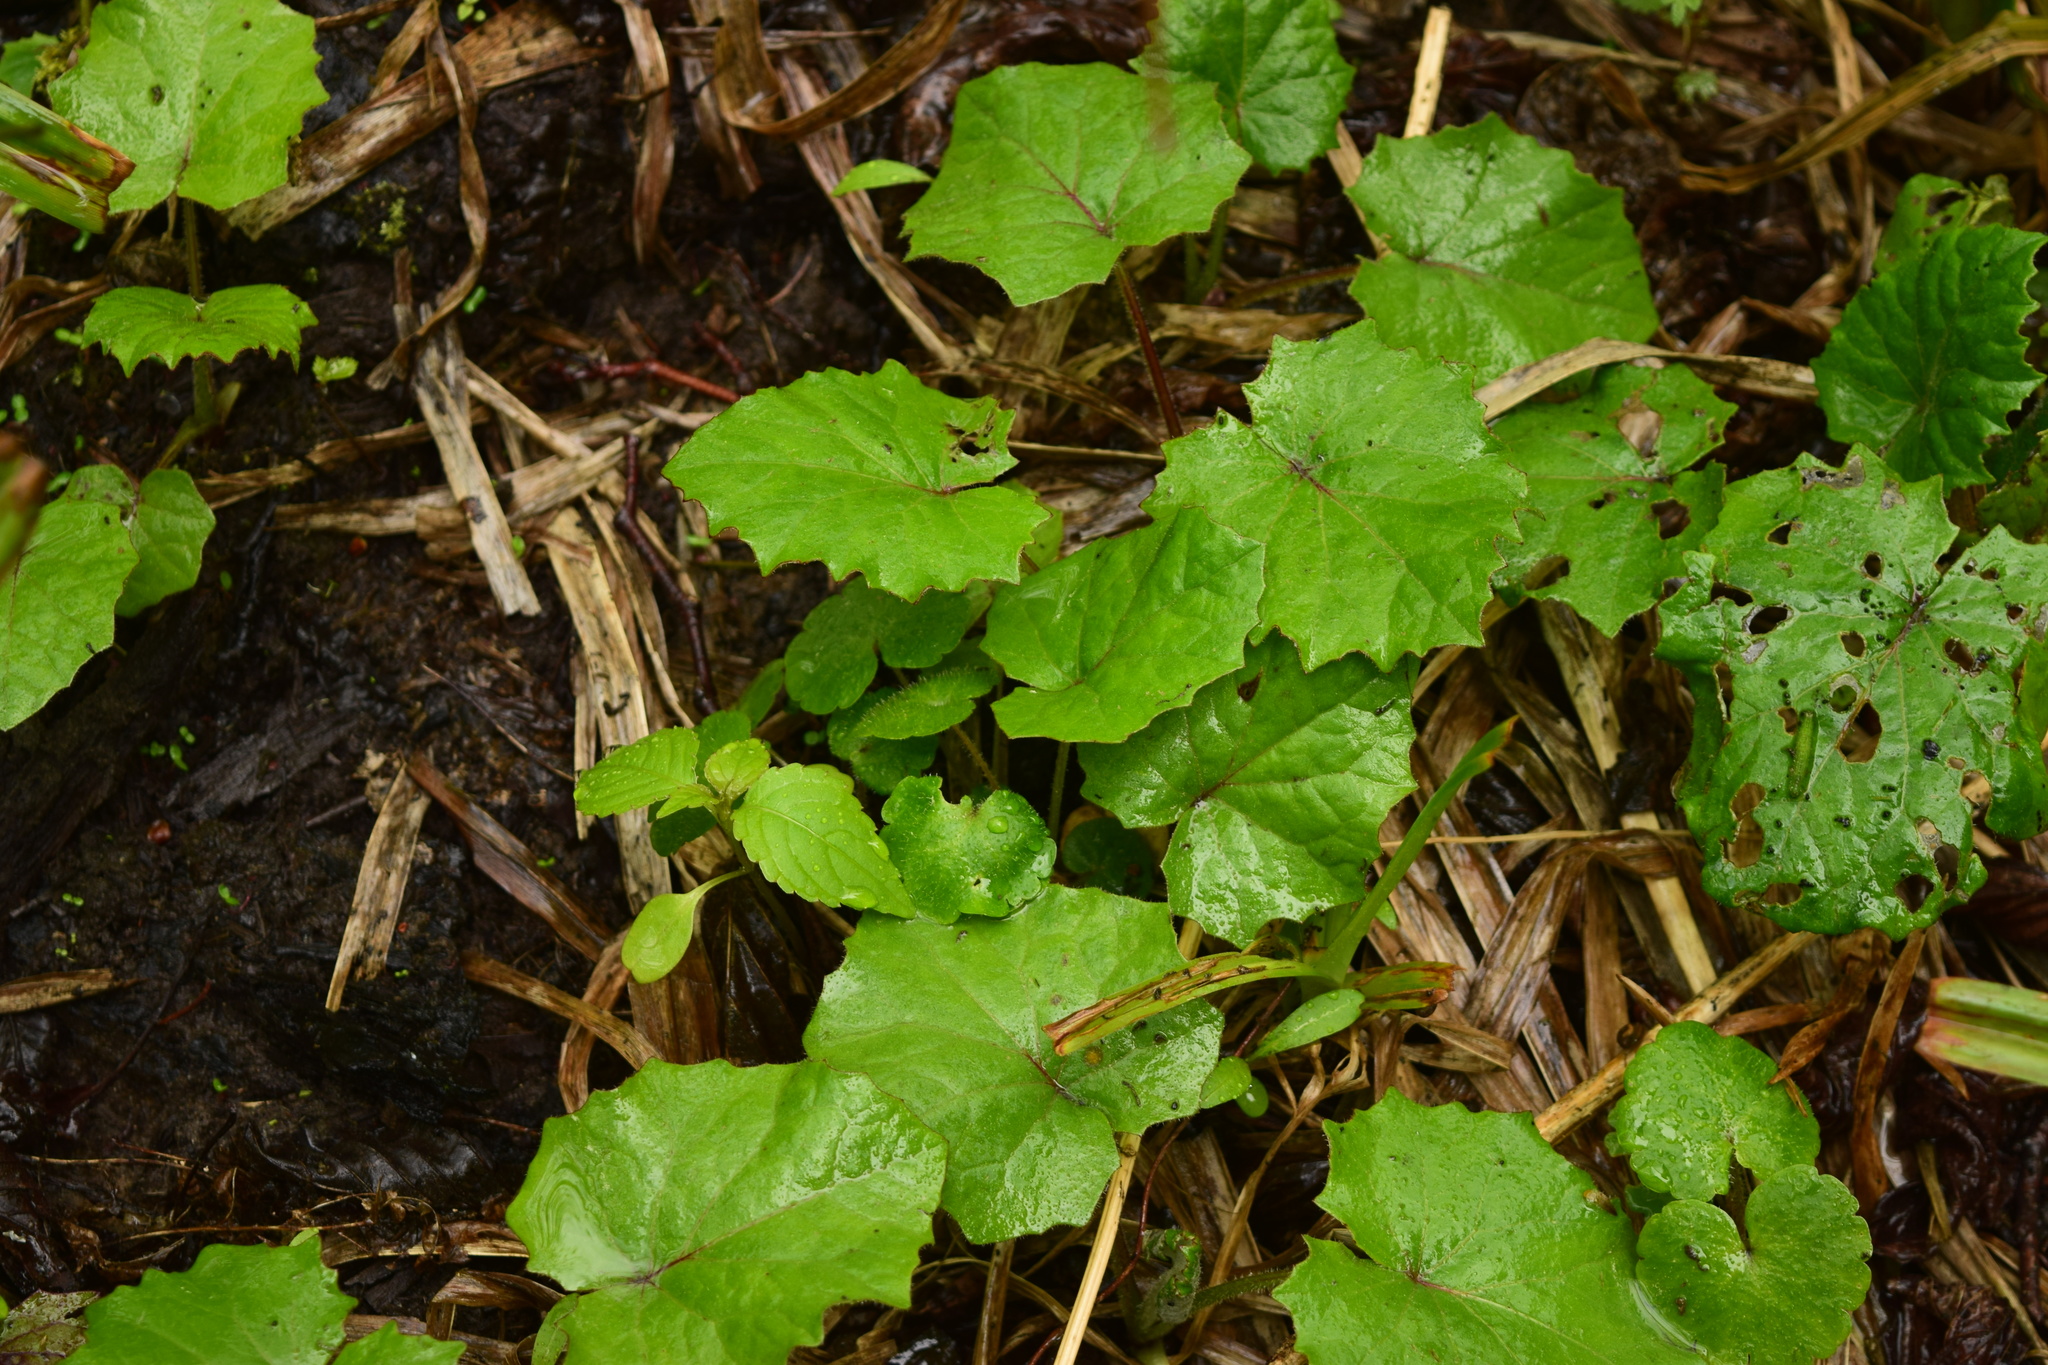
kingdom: Plantae
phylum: Tracheophyta
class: Magnoliopsida
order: Asterales
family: Asteraceae
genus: Tussilago
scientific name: Tussilago farfara
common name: Coltsfoot
